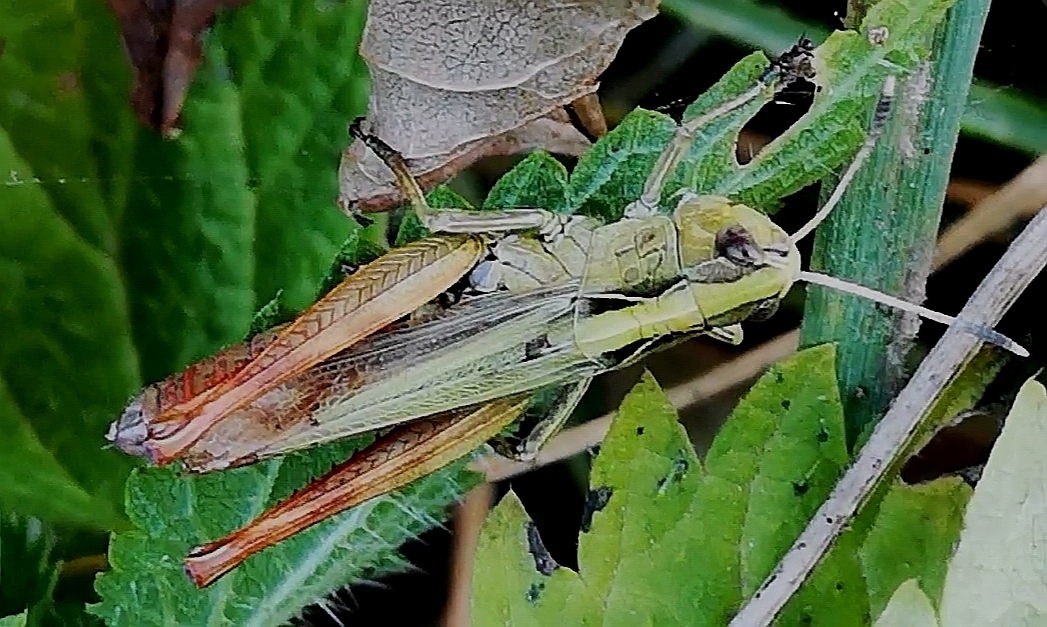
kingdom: Animalia
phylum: Arthropoda
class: Insecta
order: Orthoptera
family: Acrididae
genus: Gomphocerippus
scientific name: Gomphocerippus rufus
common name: Rufous grasshopper
